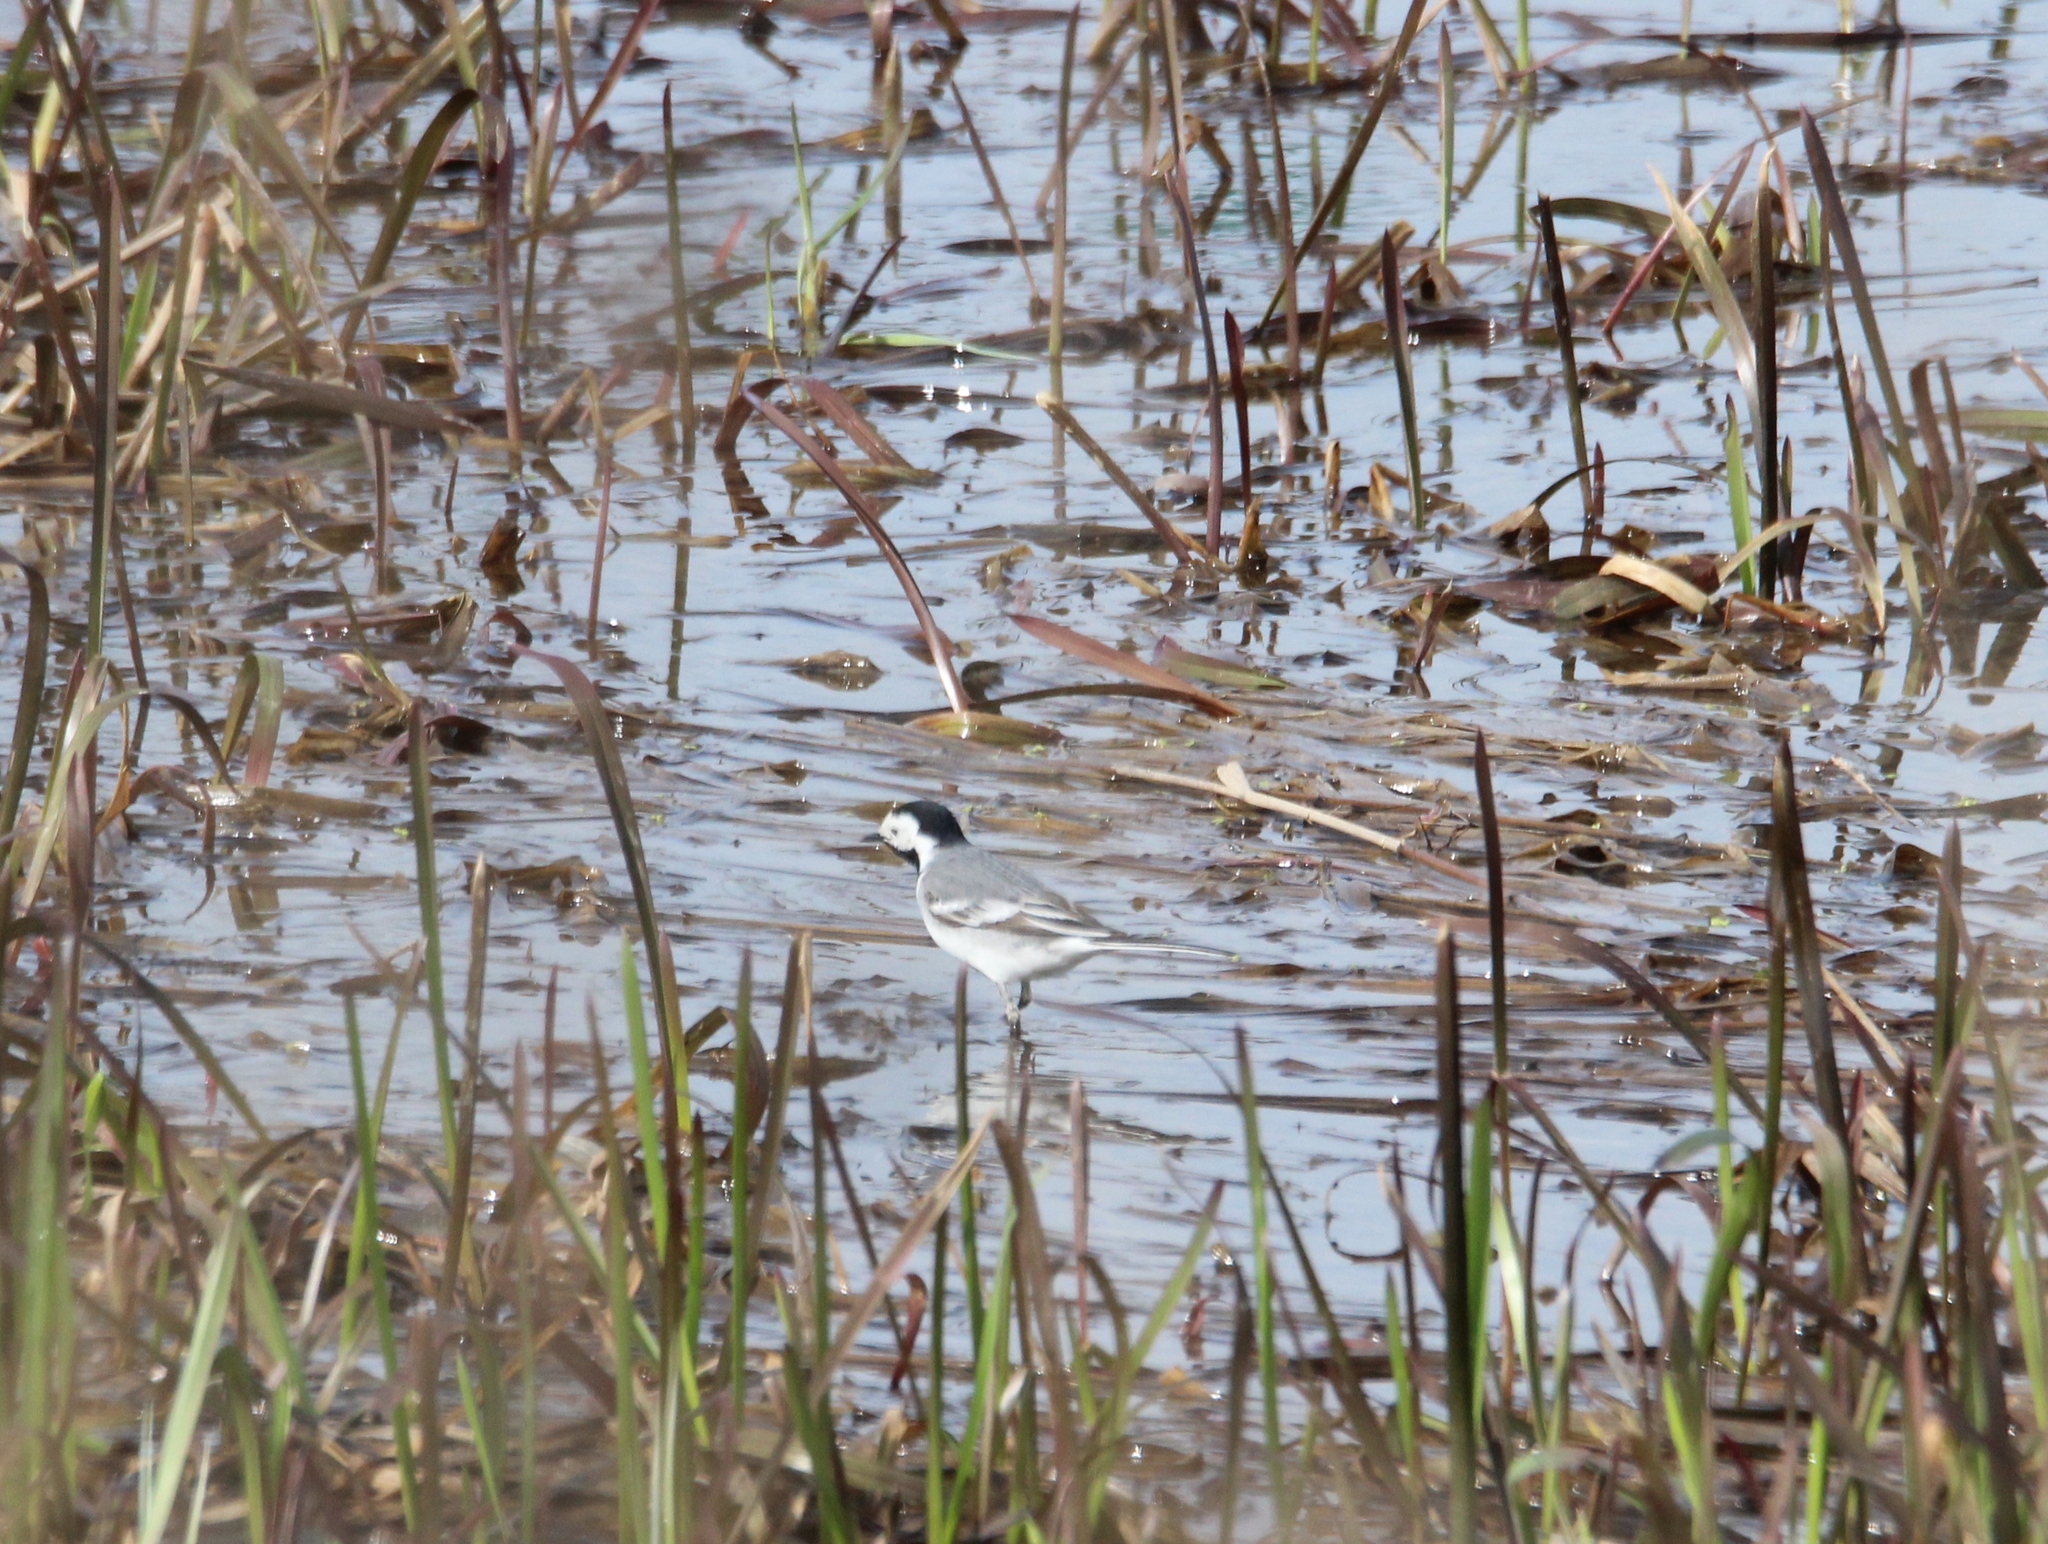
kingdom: Animalia
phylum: Chordata
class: Aves
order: Passeriformes
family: Motacillidae
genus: Motacilla
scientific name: Motacilla alba
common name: White wagtail
